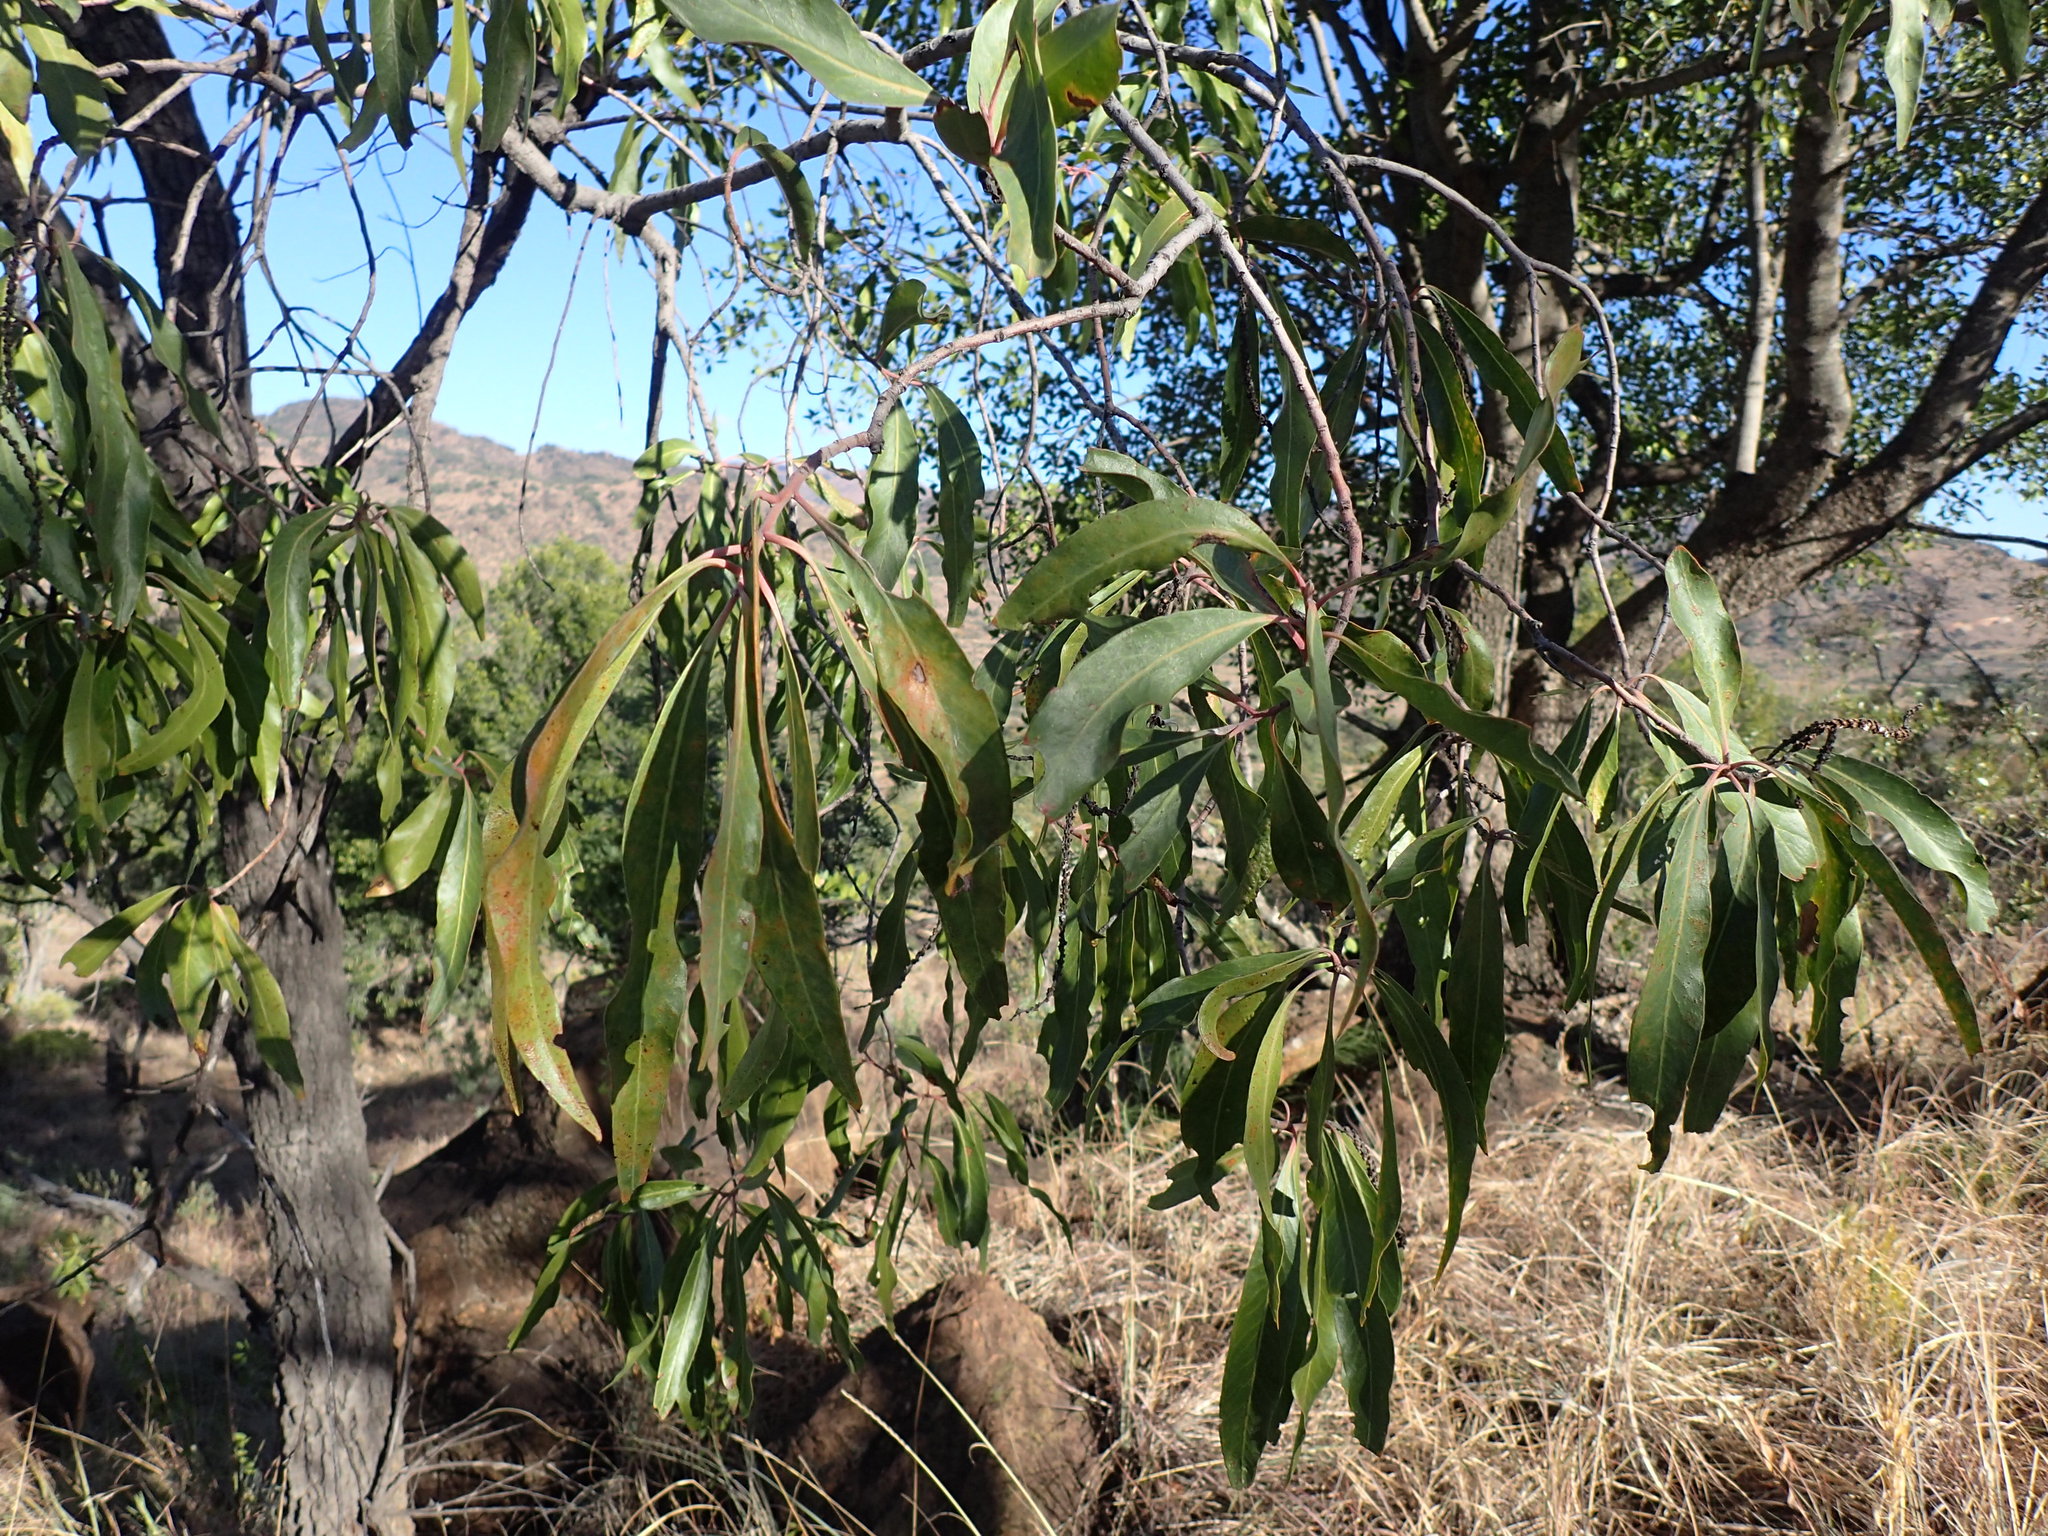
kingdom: Plantae
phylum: Tracheophyta
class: Magnoliopsida
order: Proteales
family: Proteaceae
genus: Faurea
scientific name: Faurea saligna
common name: African bean
